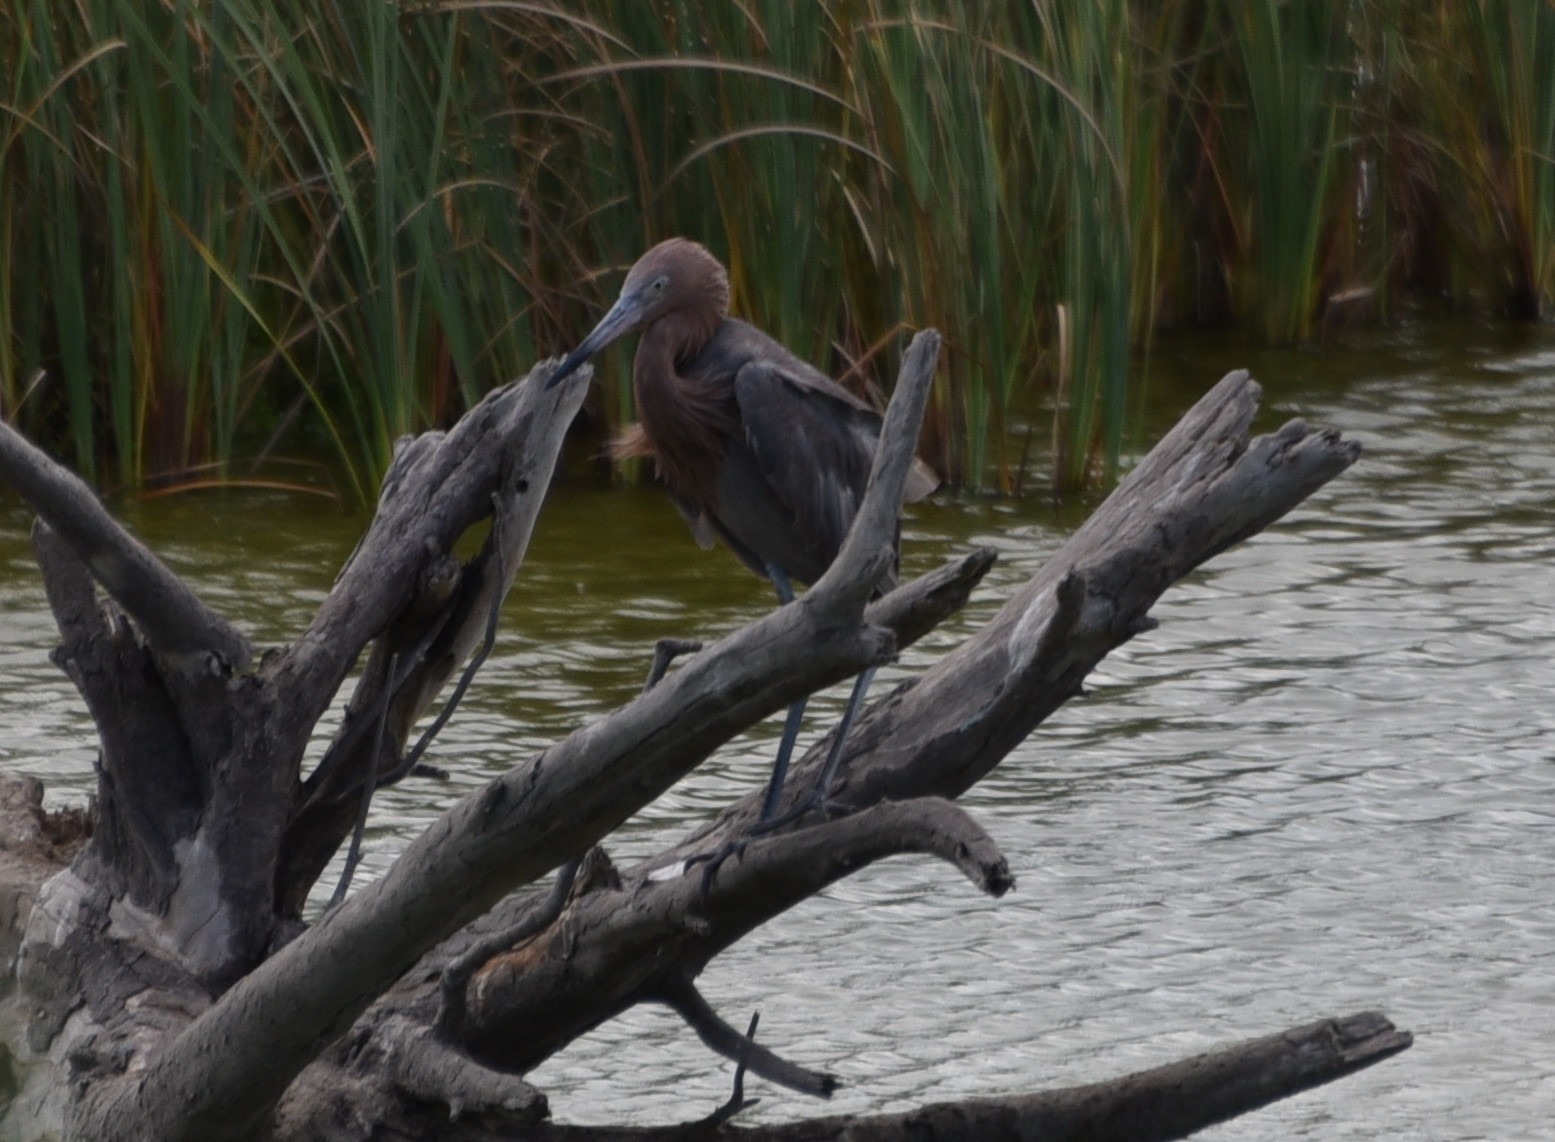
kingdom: Animalia
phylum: Chordata
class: Aves
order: Pelecaniformes
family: Ardeidae
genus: Egretta
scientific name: Egretta rufescens
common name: Reddish egret
